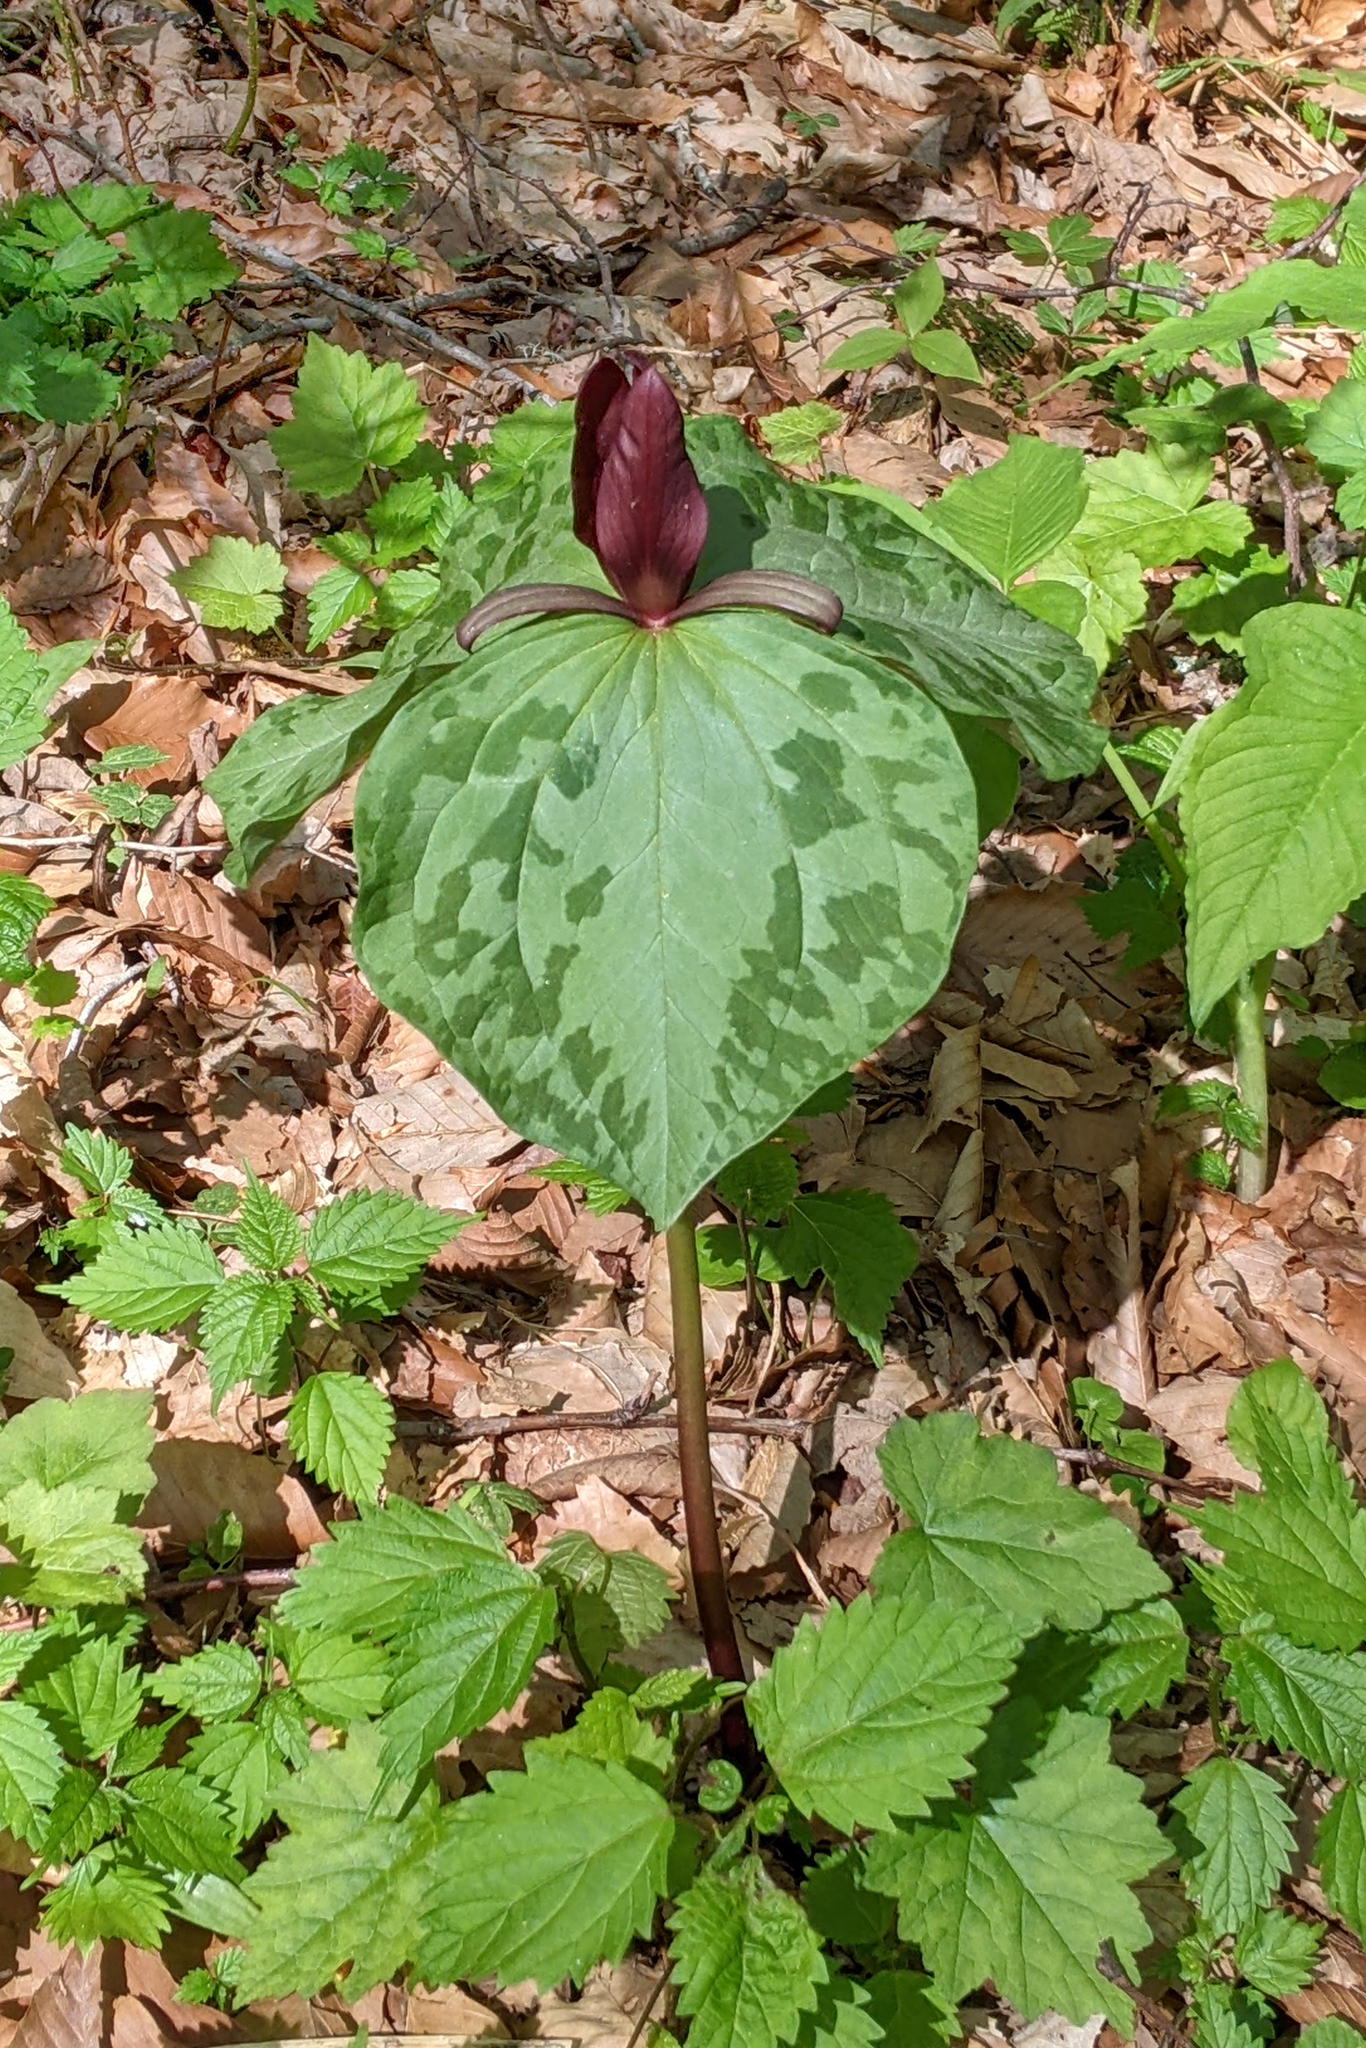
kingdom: Plantae
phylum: Tracheophyta
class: Liliopsida
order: Liliales
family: Melanthiaceae
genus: Trillium
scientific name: Trillium cuneatum
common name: Cuneate trillium
